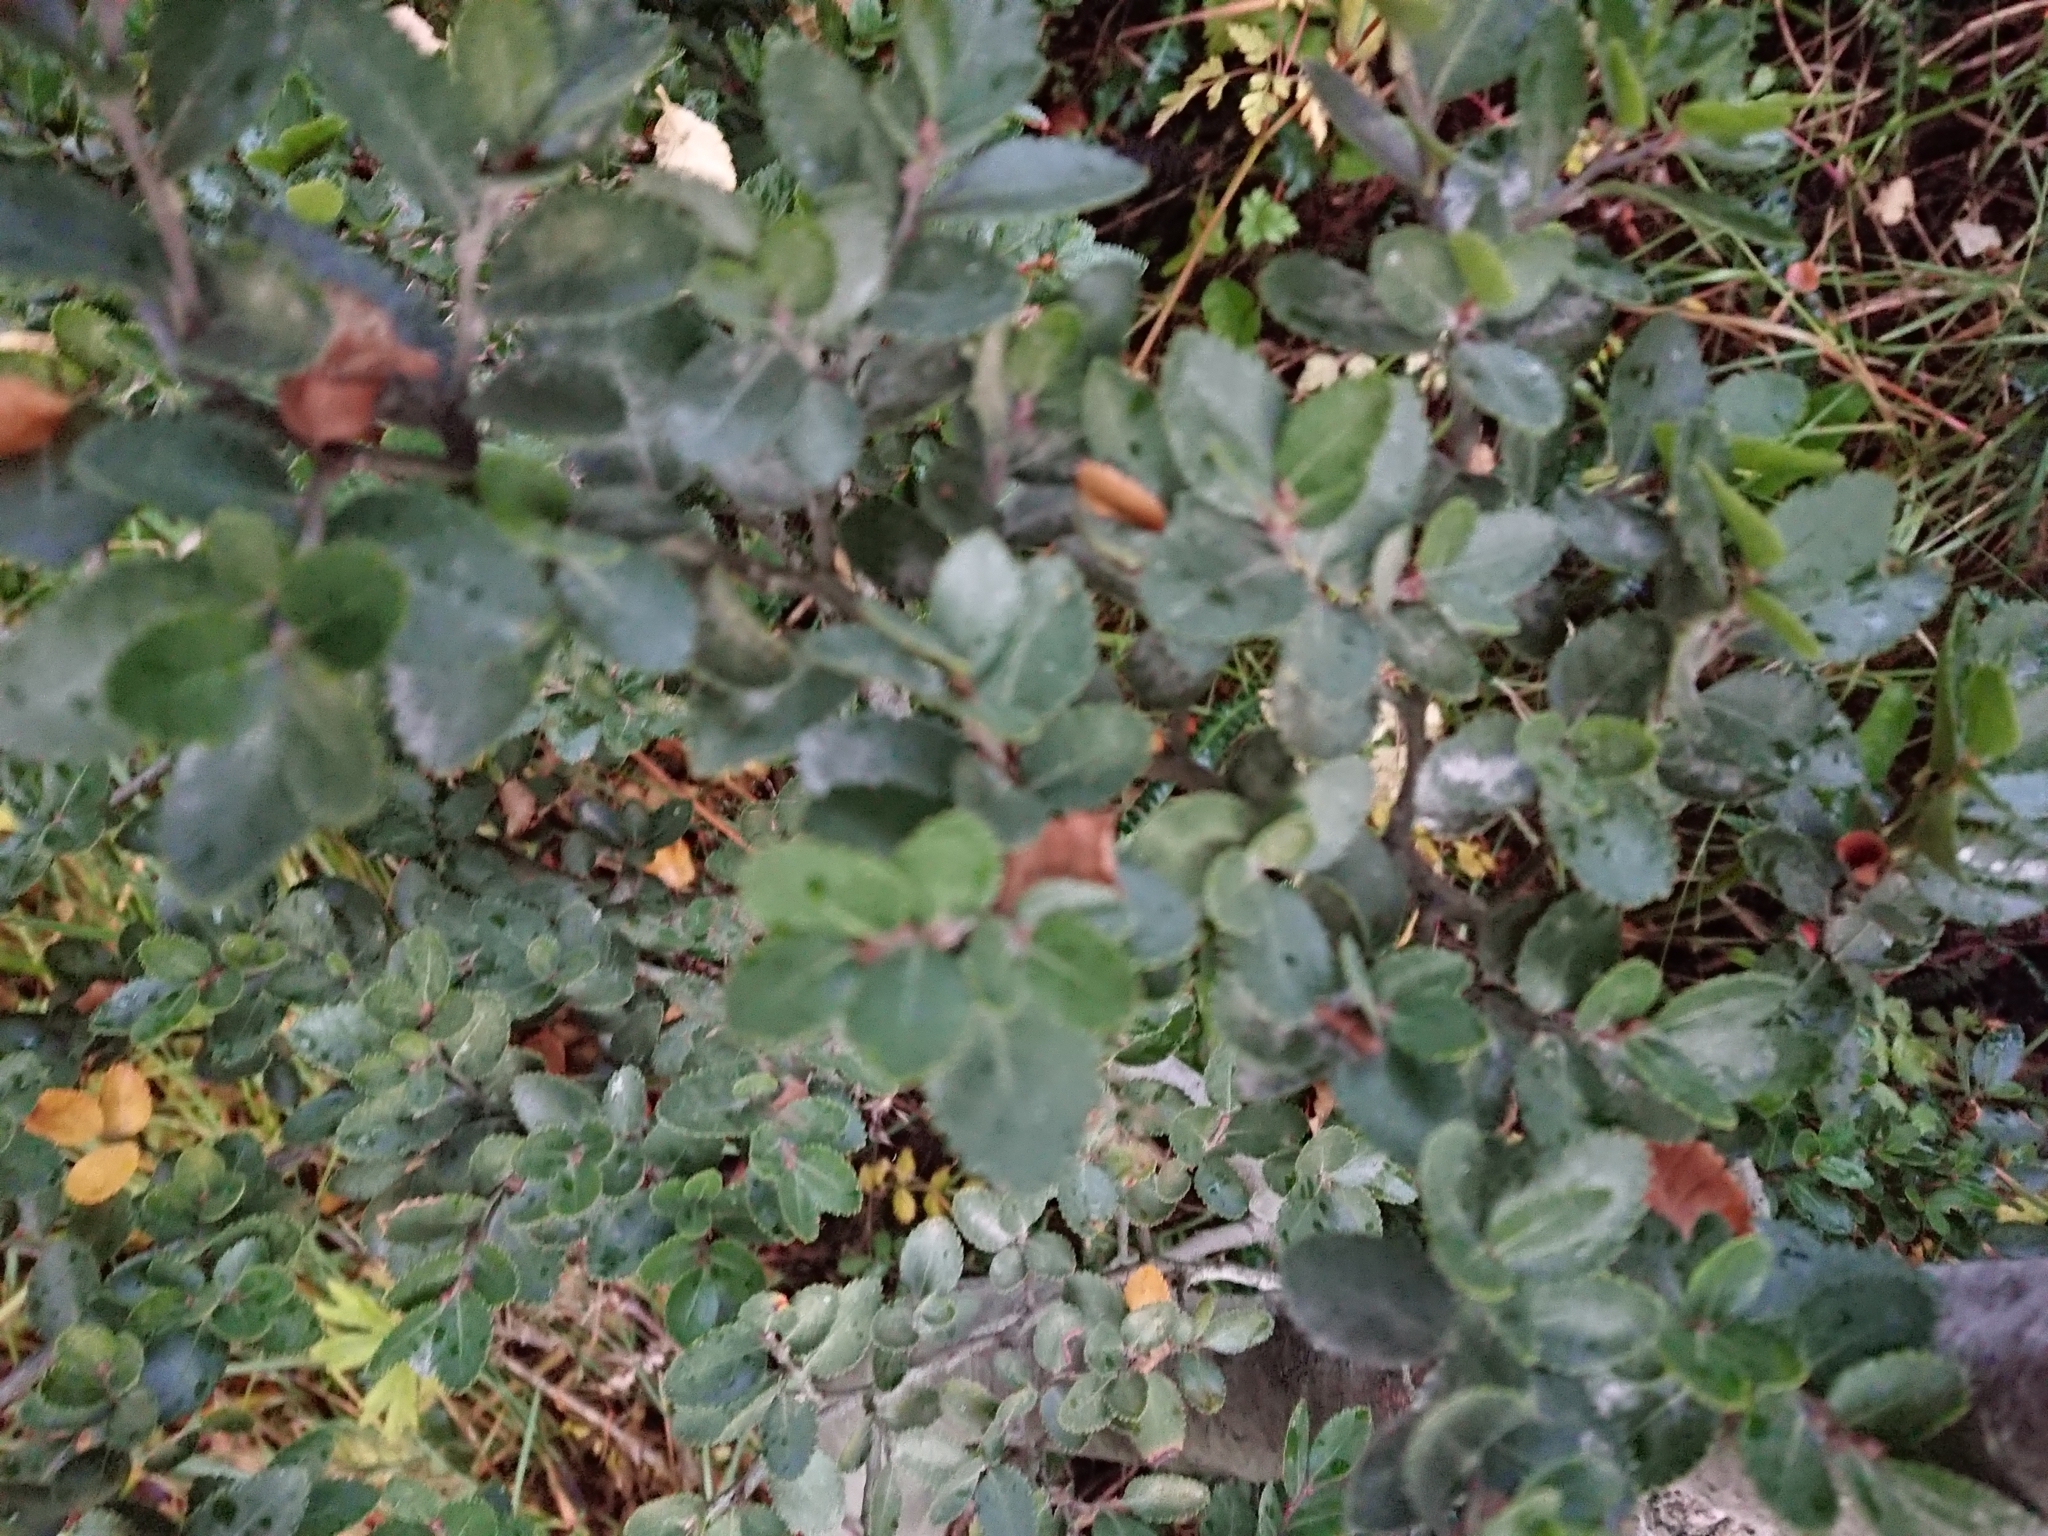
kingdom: Plantae
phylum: Tracheophyta
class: Magnoliopsida
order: Fagales
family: Nothofagaceae
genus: Nothofagus
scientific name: Nothofagus betuloides
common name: Magellan's beech
